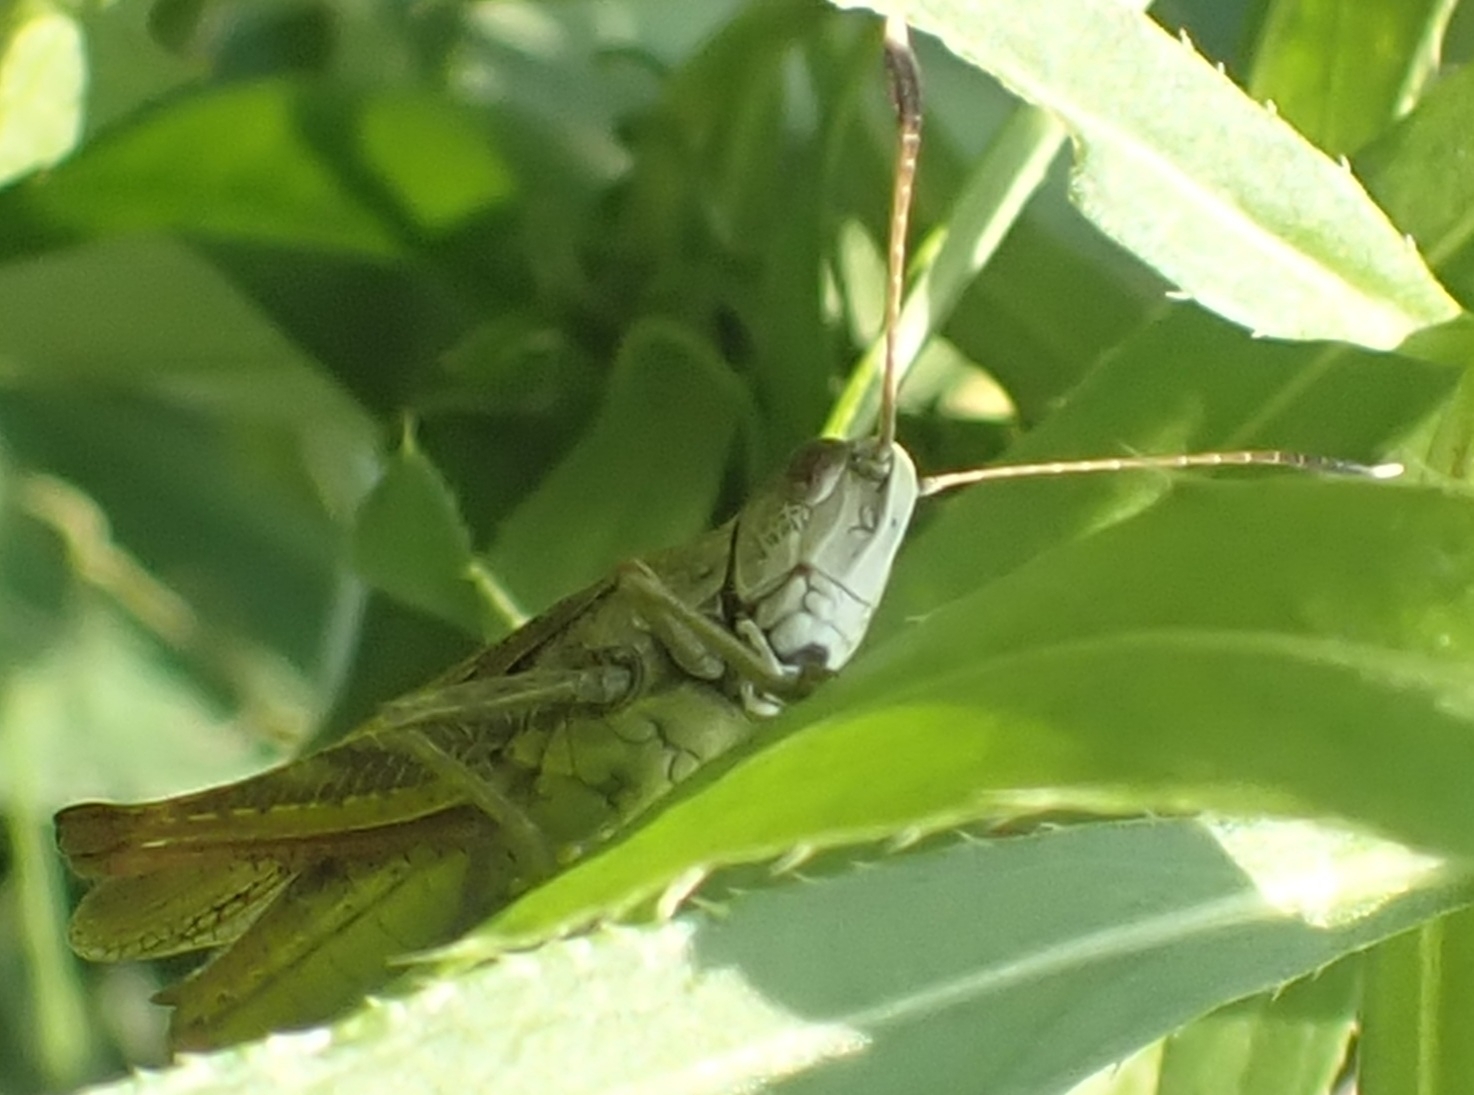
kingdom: Animalia
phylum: Arthropoda
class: Insecta
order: Orthoptera
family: Acrididae
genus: Gomphocerippus
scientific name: Gomphocerippus rufus
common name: Rufous grasshopper
